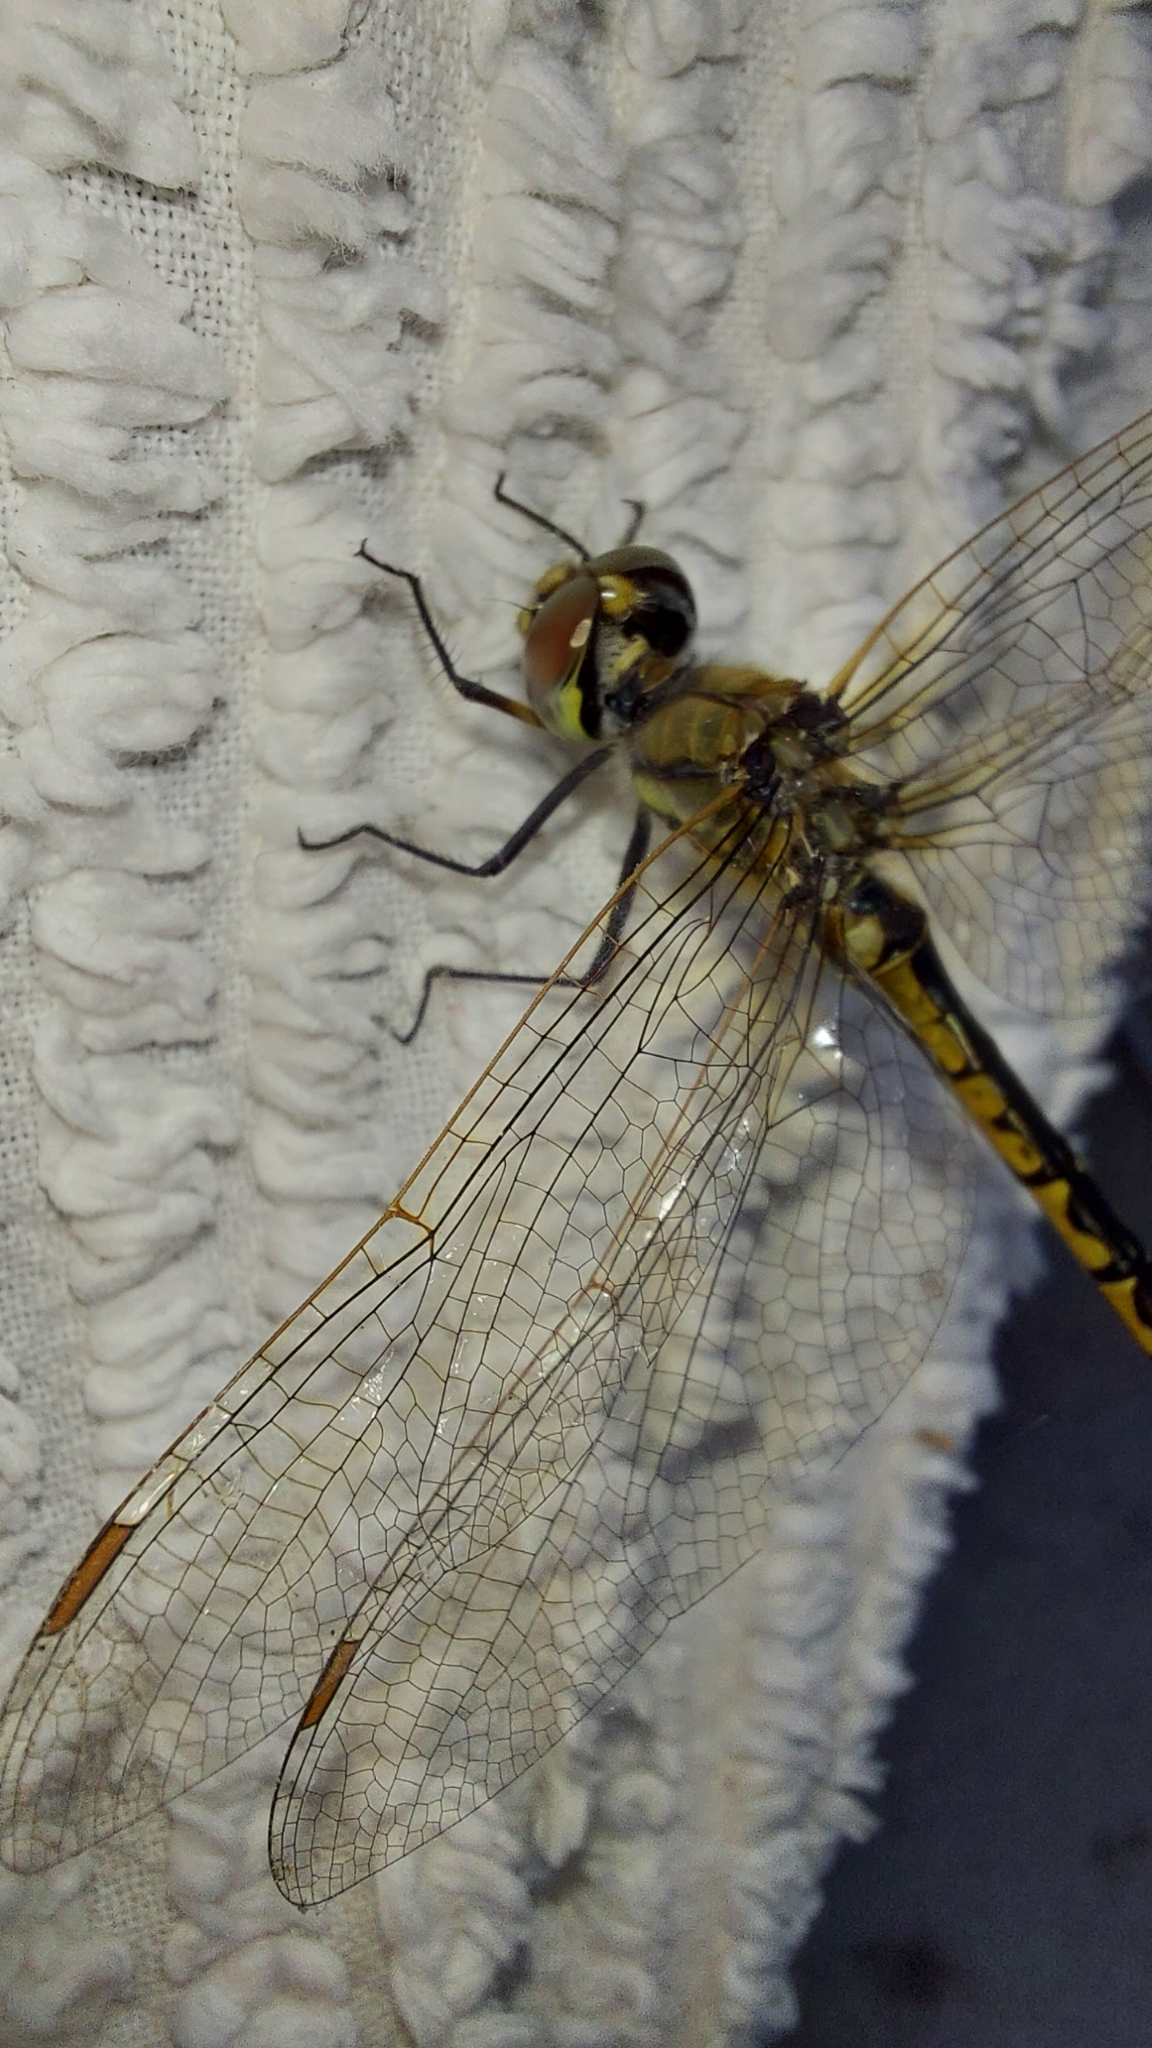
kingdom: Animalia
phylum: Arthropoda
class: Insecta
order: Odonata
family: Corduliidae
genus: Hemicordulia
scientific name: Hemicordulia tau
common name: Tau emerald
